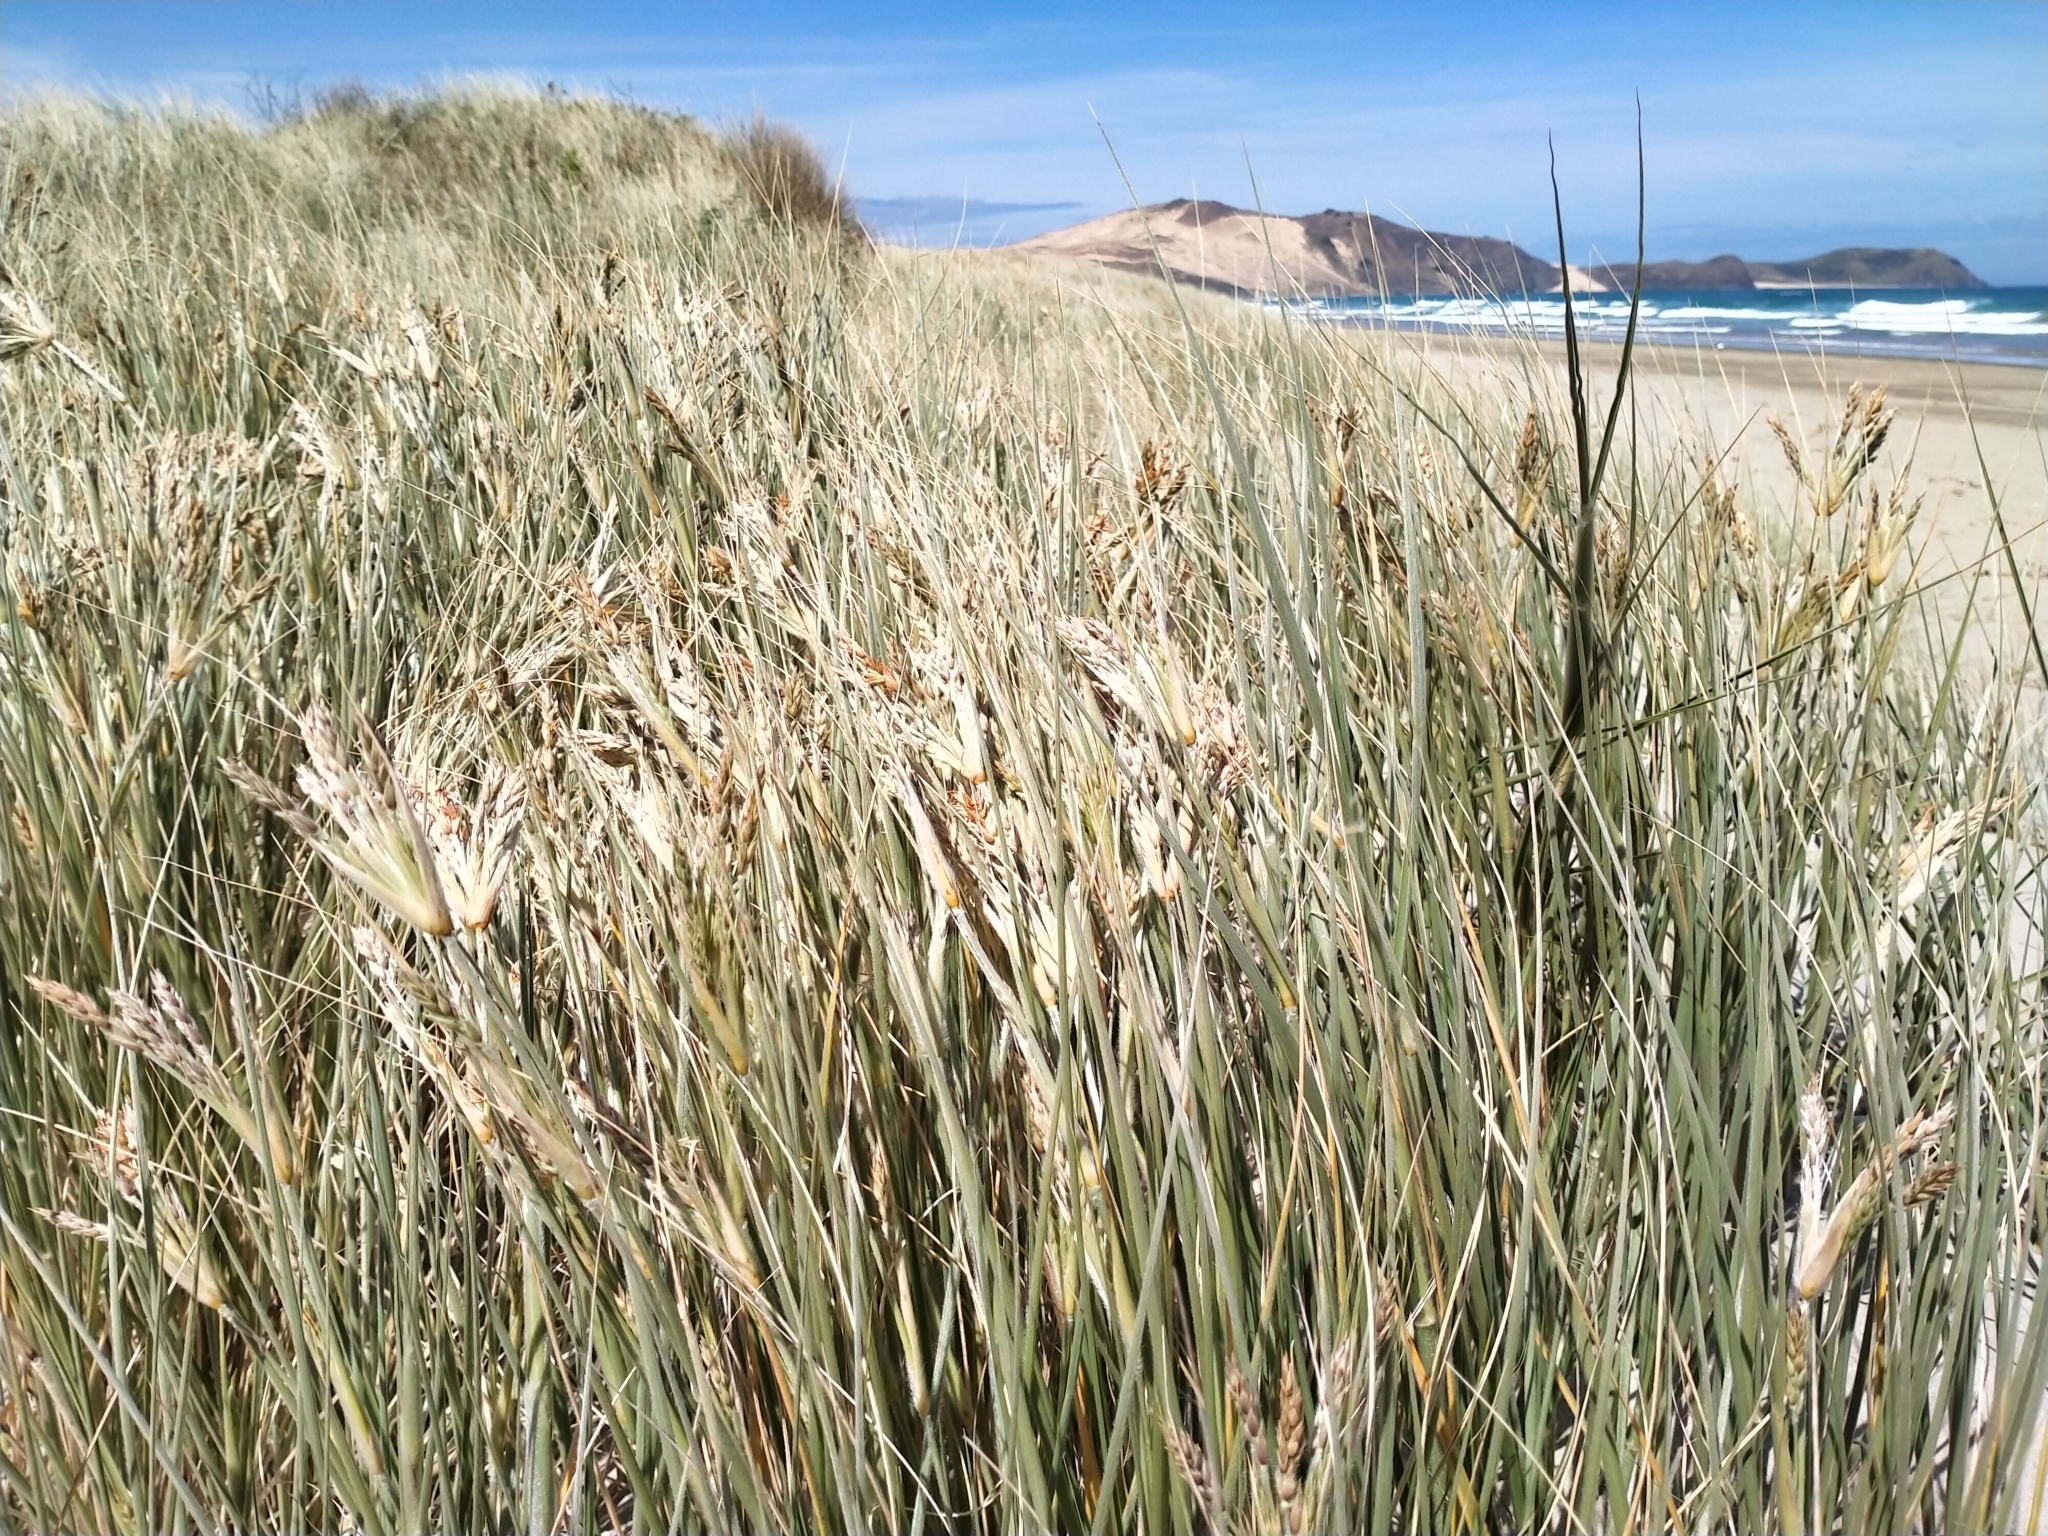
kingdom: Plantae
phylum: Tracheophyta
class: Liliopsida
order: Poales
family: Poaceae
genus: Spinifex
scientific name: Spinifex sericeus
